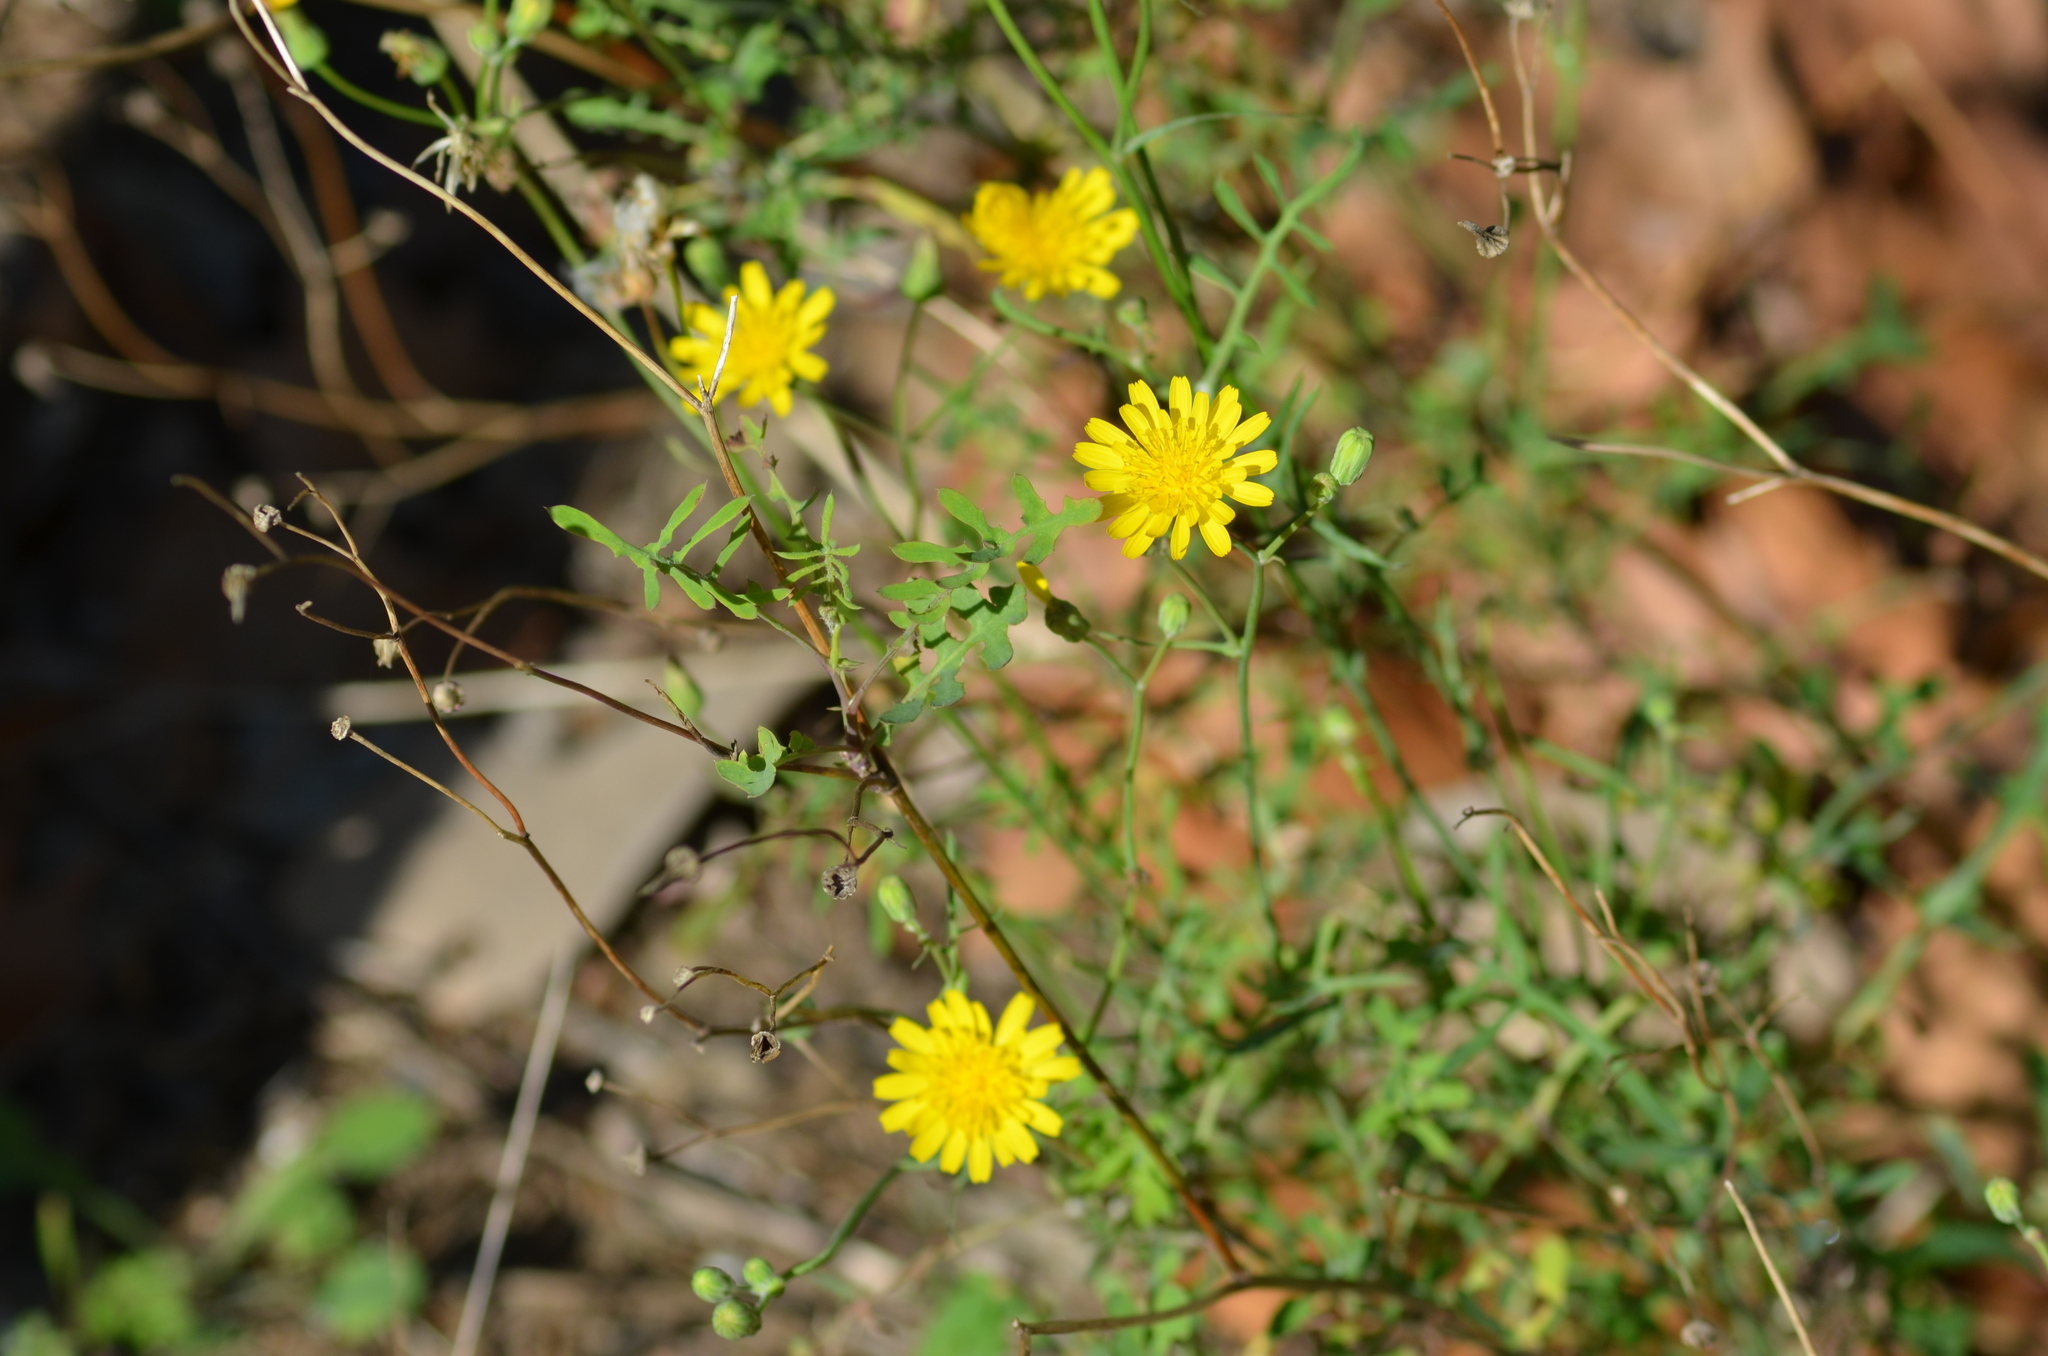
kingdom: Plantae
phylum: Tracheophyta
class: Magnoliopsida
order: Asterales
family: Asteraceae
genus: Sonchus
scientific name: Sonchus tenerrimus
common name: Clammy sowthistle
